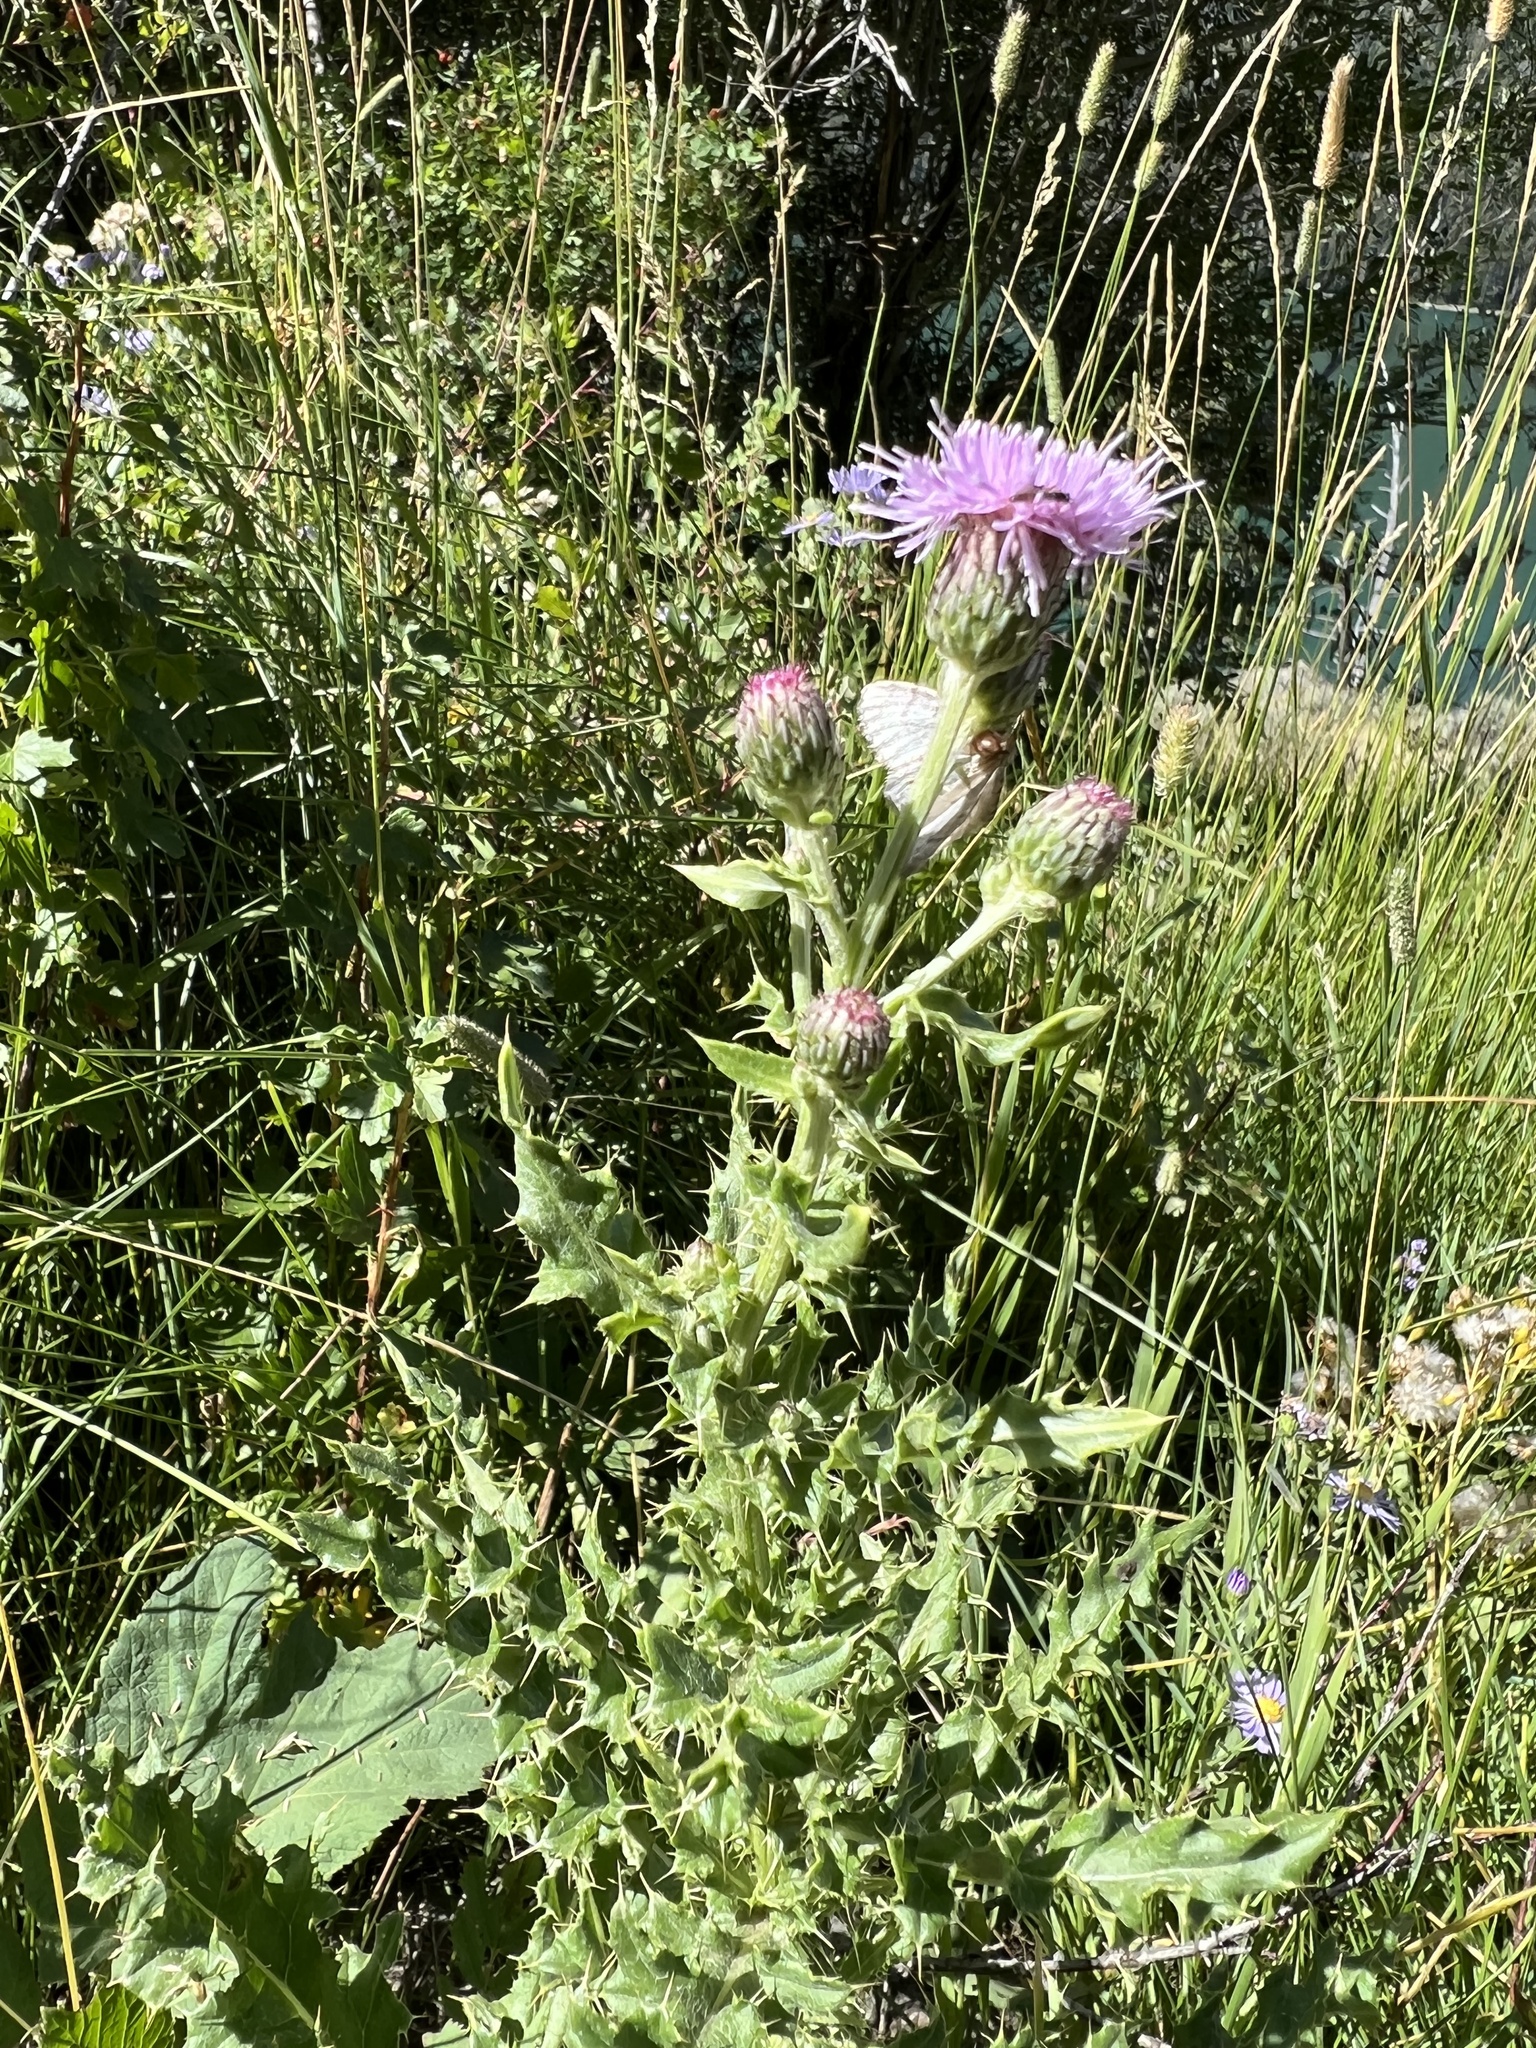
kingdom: Plantae
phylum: Tracheophyta
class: Magnoliopsida
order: Asterales
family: Asteraceae
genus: Cirsium
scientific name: Cirsium arvense
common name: Creeping thistle
